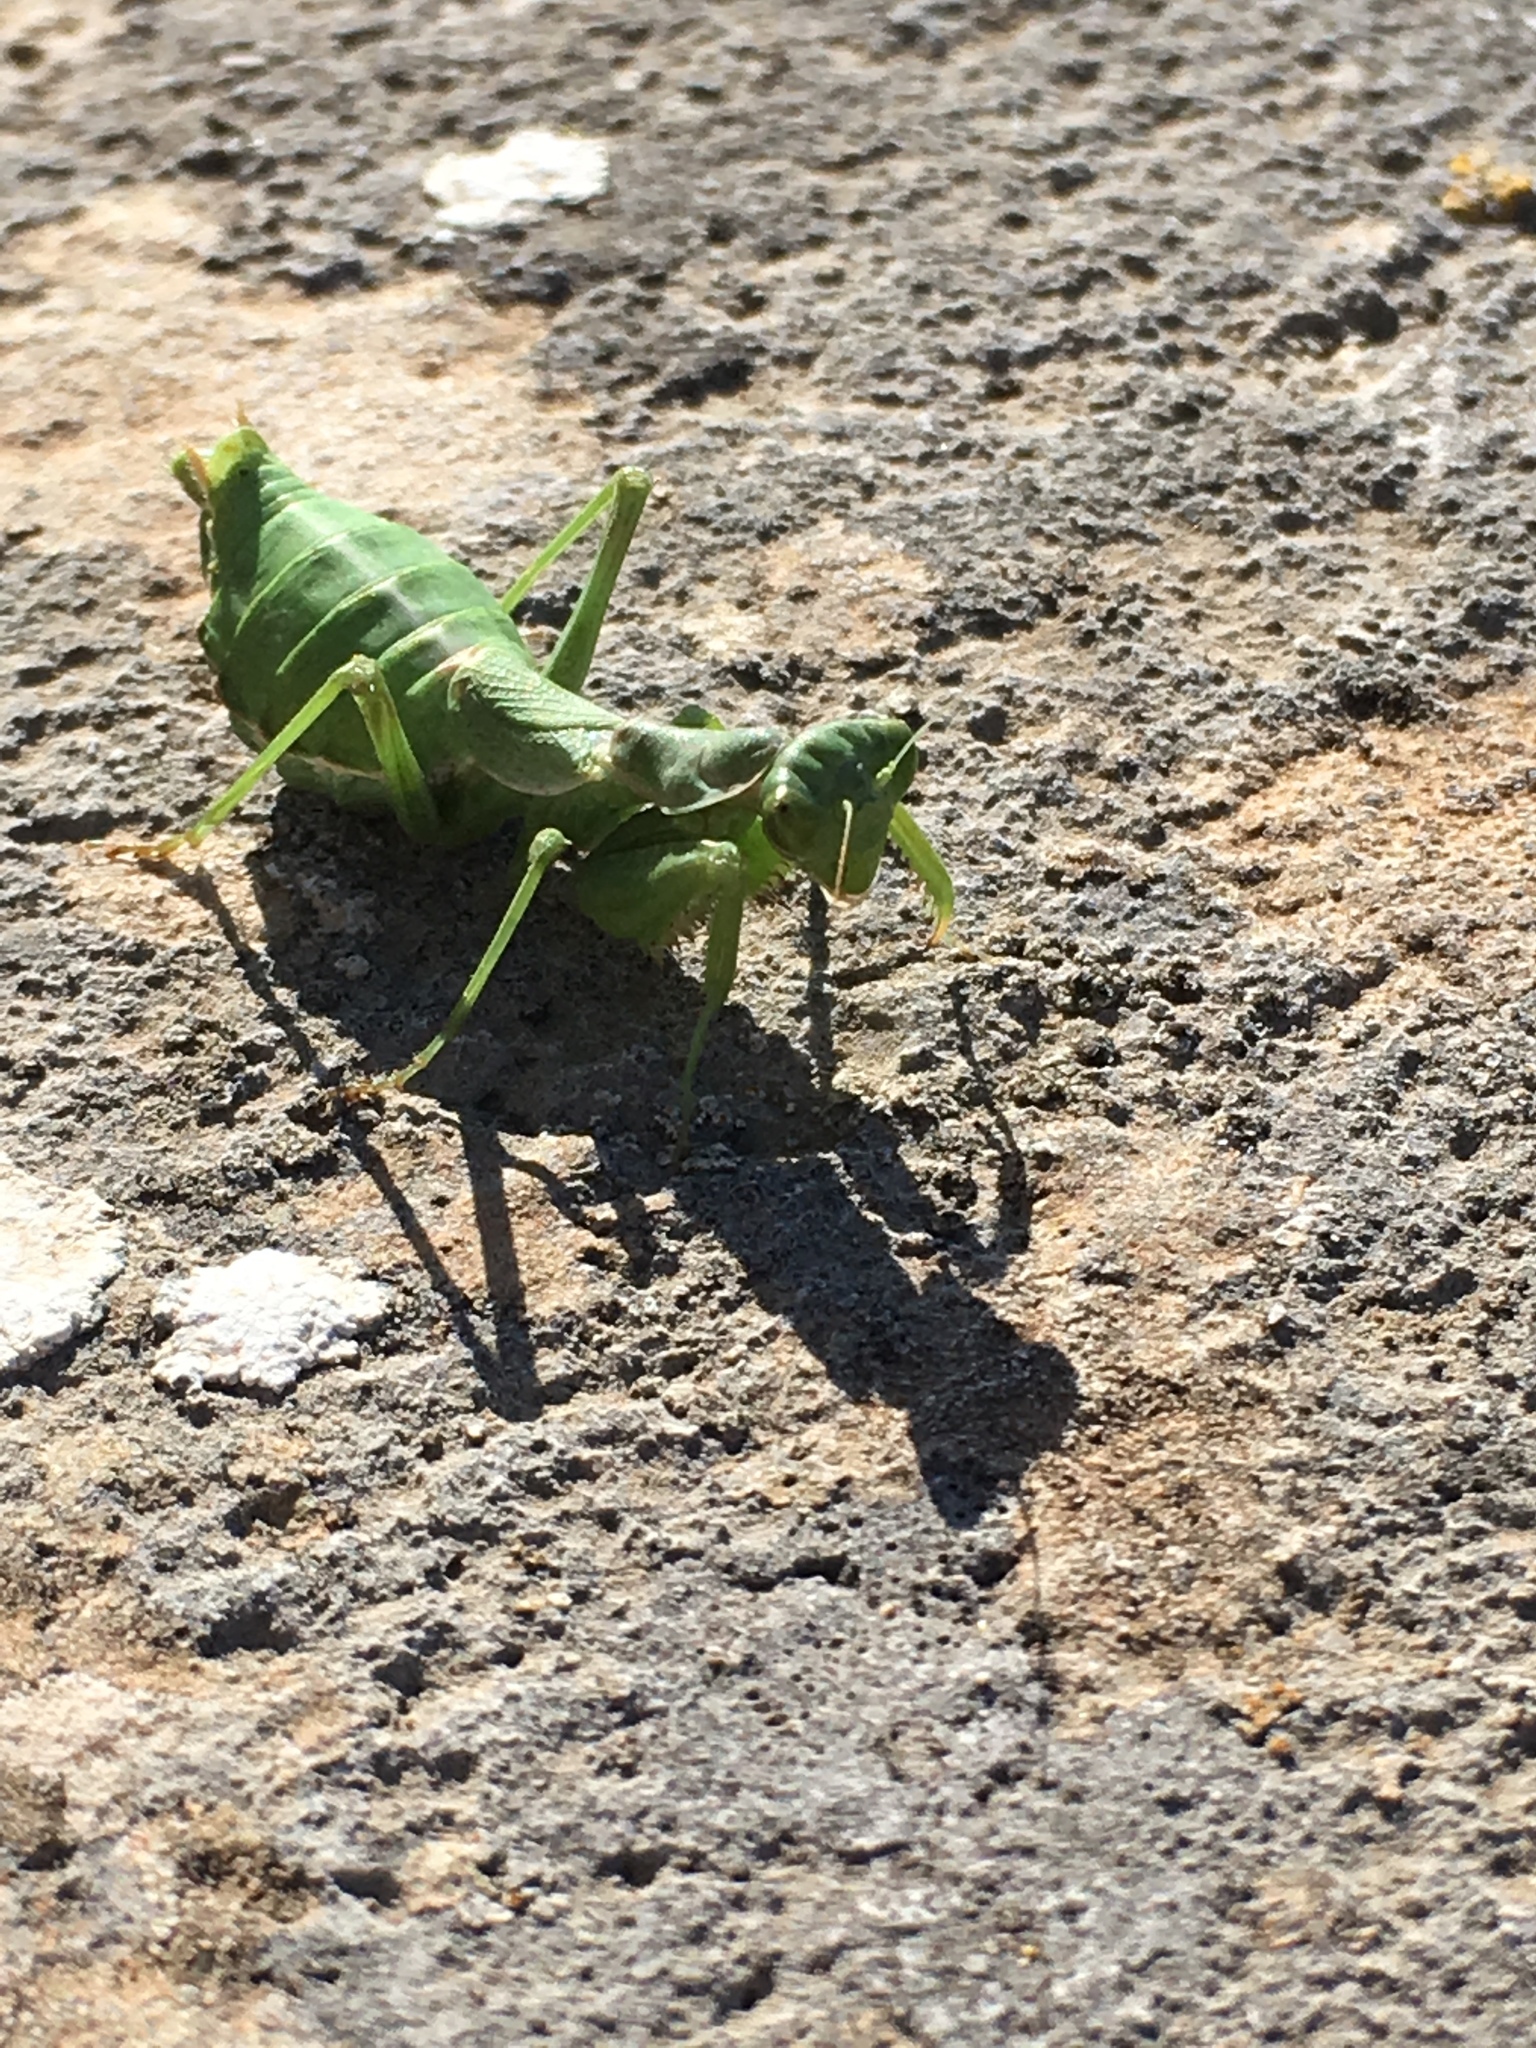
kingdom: Animalia
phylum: Arthropoda
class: Insecta
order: Mantodea
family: Amelidae
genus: Ameles
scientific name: Ameles spallanzania
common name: European dwarf mantis
